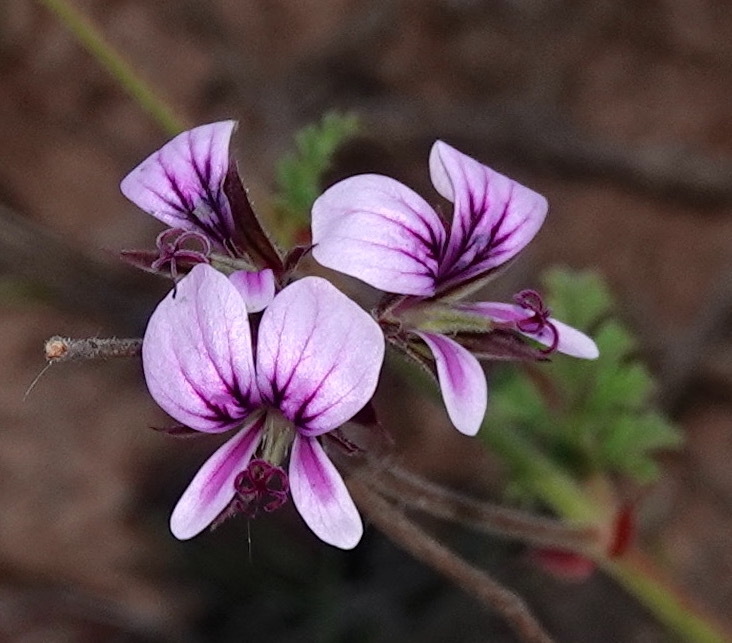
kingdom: Plantae
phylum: Tracheophyta
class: Magnoliopsida
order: Geraniales
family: Geraniaceae
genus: Pelargonium
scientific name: Pelargonium myrrhifolium
